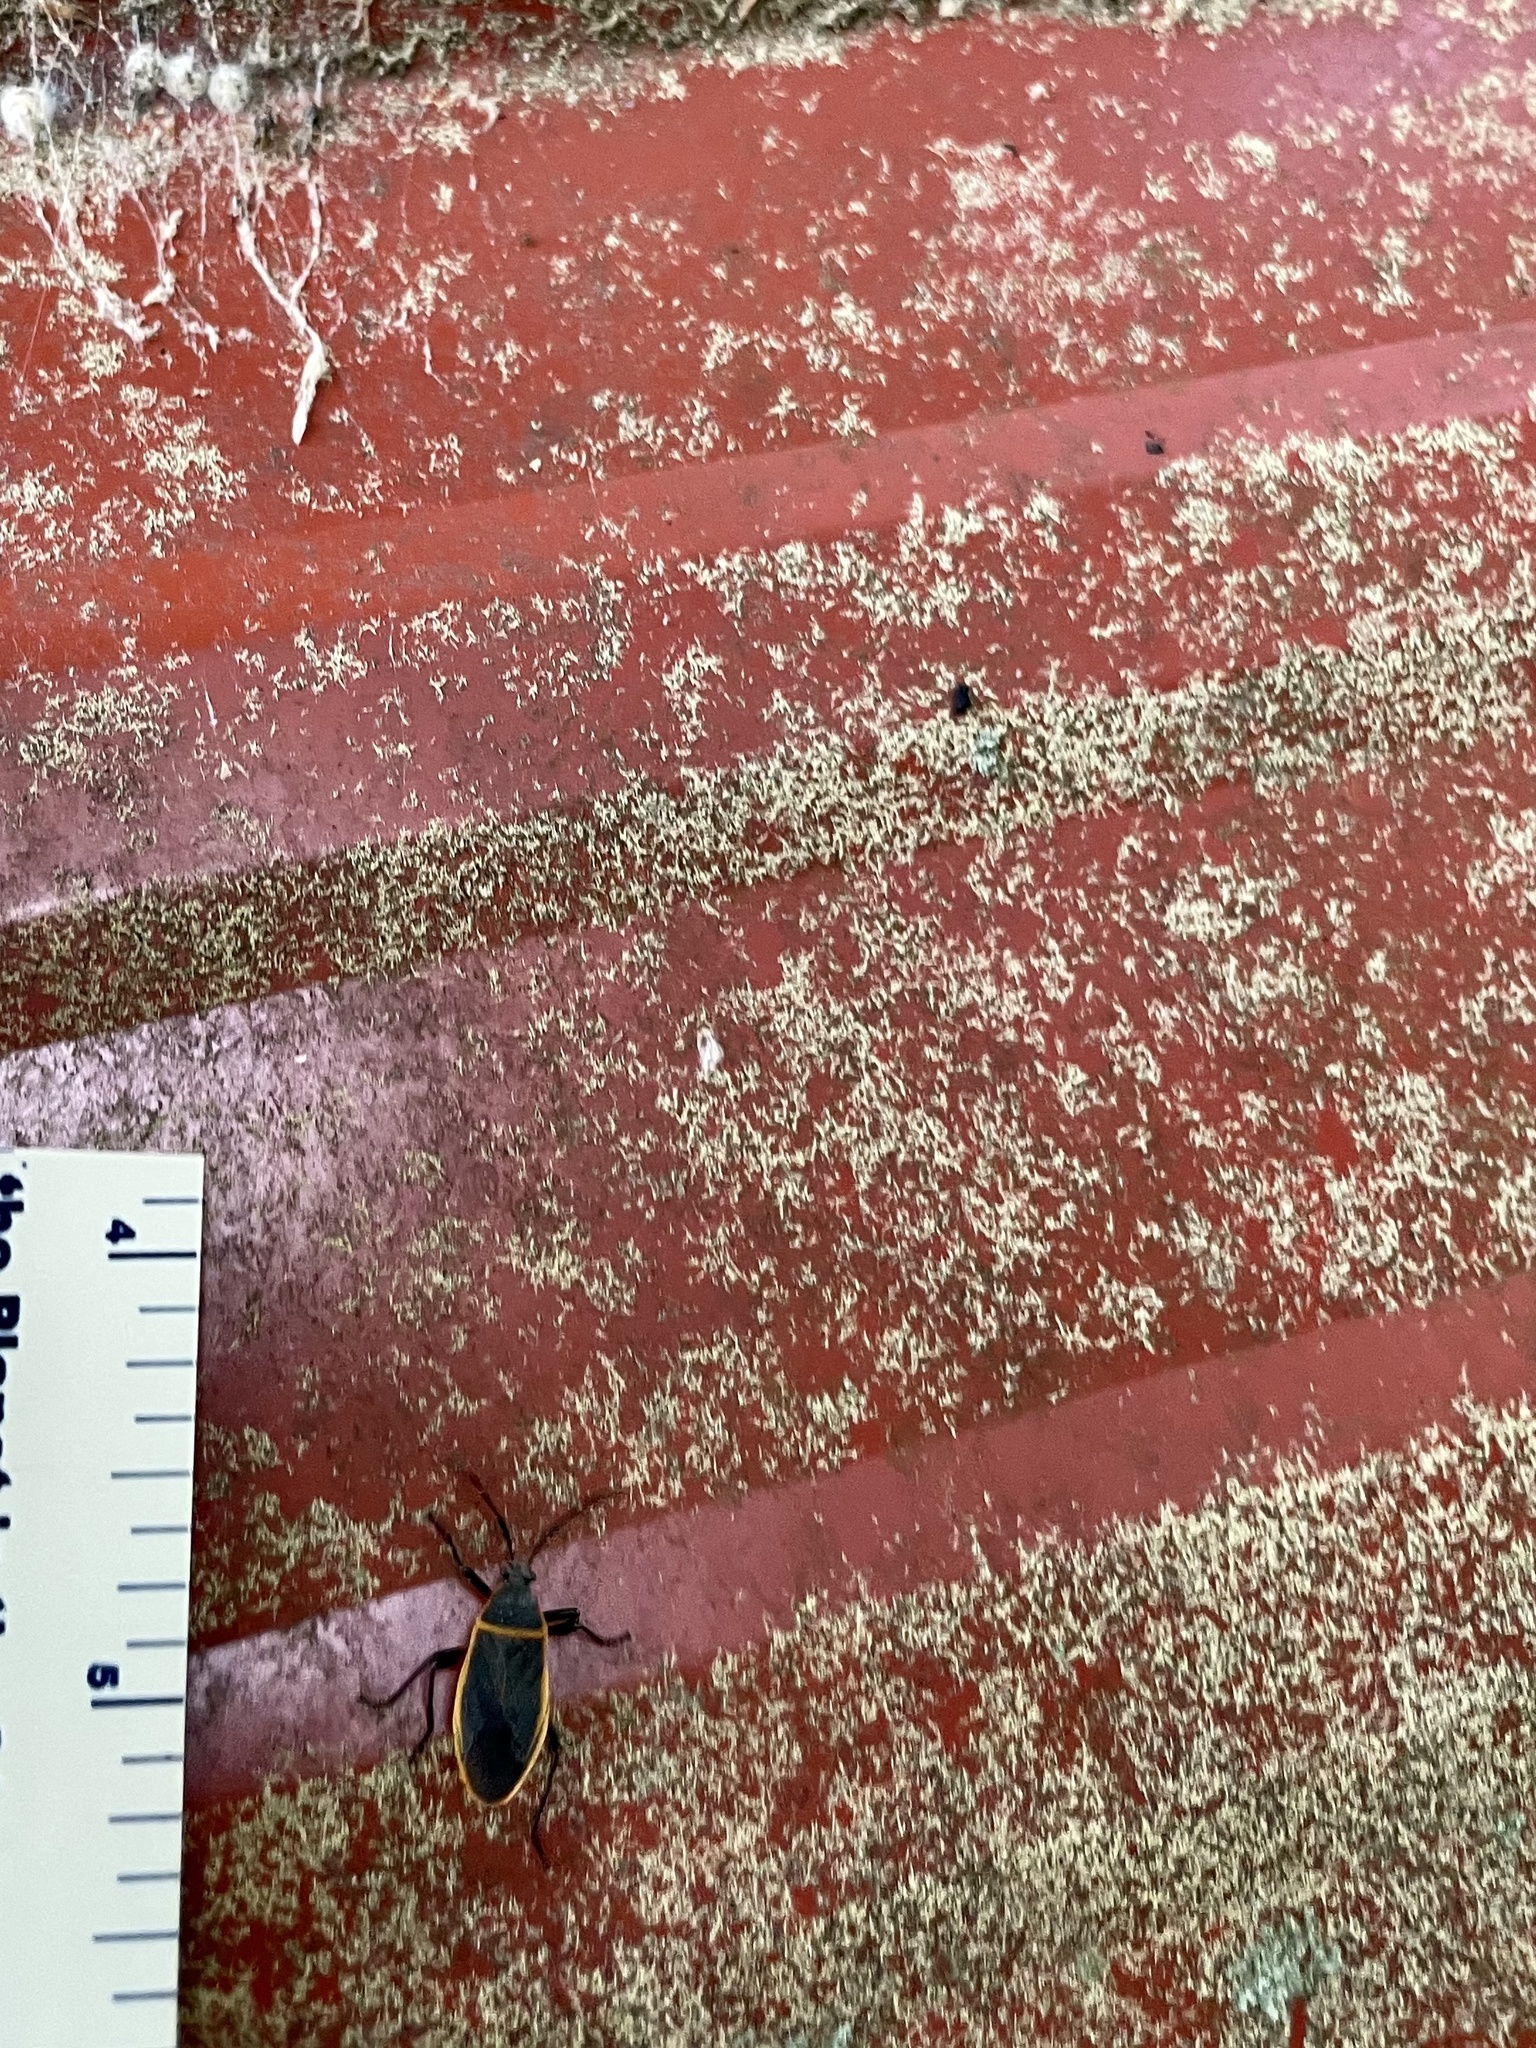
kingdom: Animalia
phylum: Arthropoda
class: Insecta
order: Hemiptera
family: Largidae
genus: Largus
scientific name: Largus succinctus
